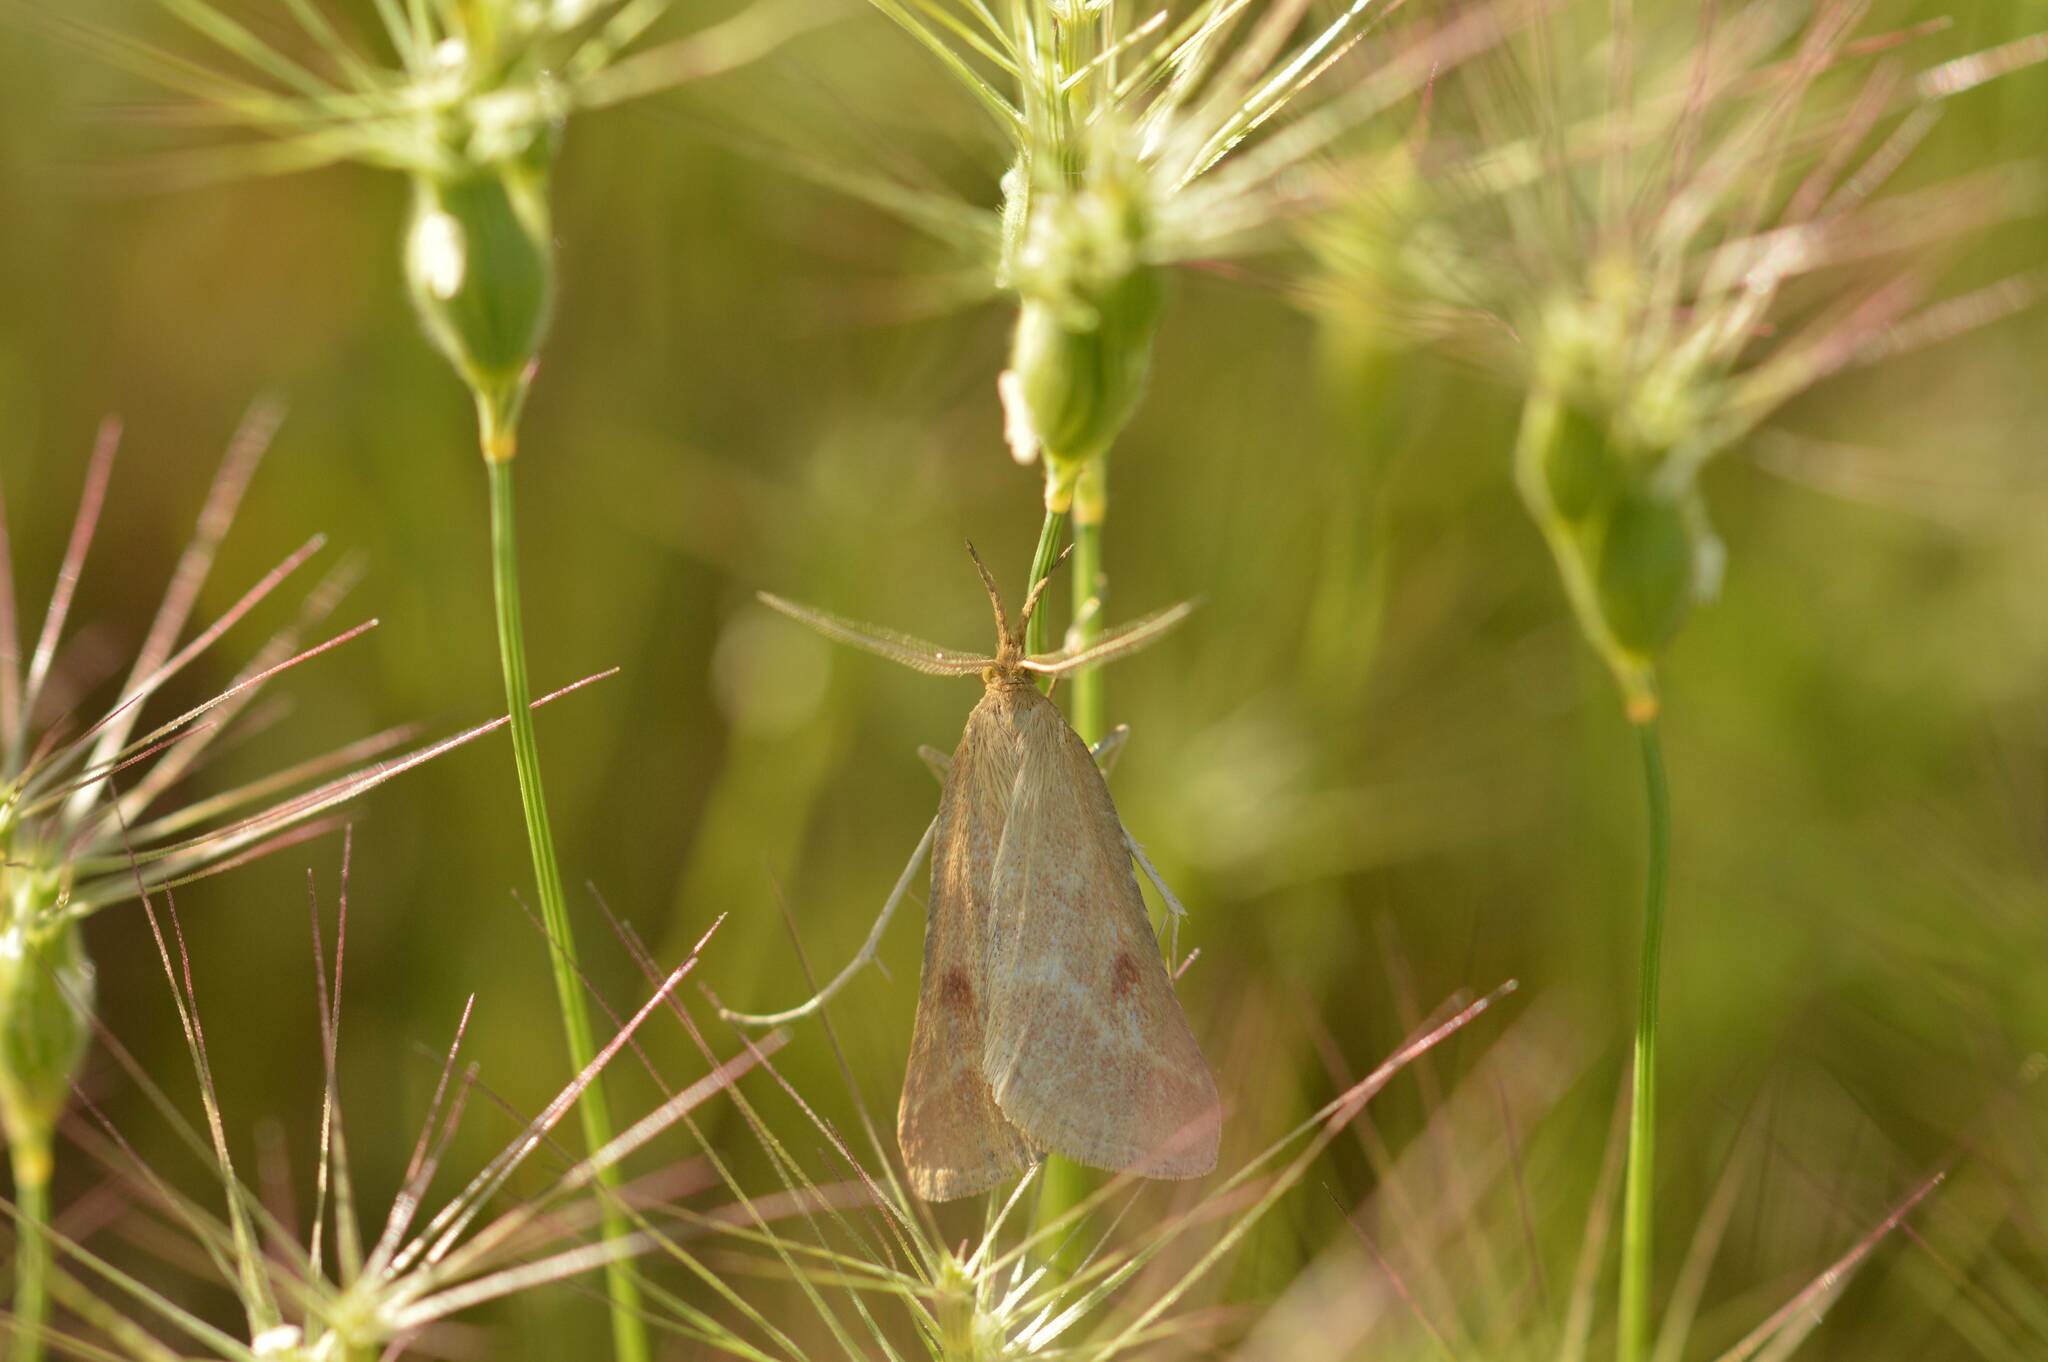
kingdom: Animalia
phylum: Arthropoda
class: Insecta
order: Lepidoptera
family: Pyralidae
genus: Synaphe
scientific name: Synaphe punctalis
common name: Long-legged tabby
